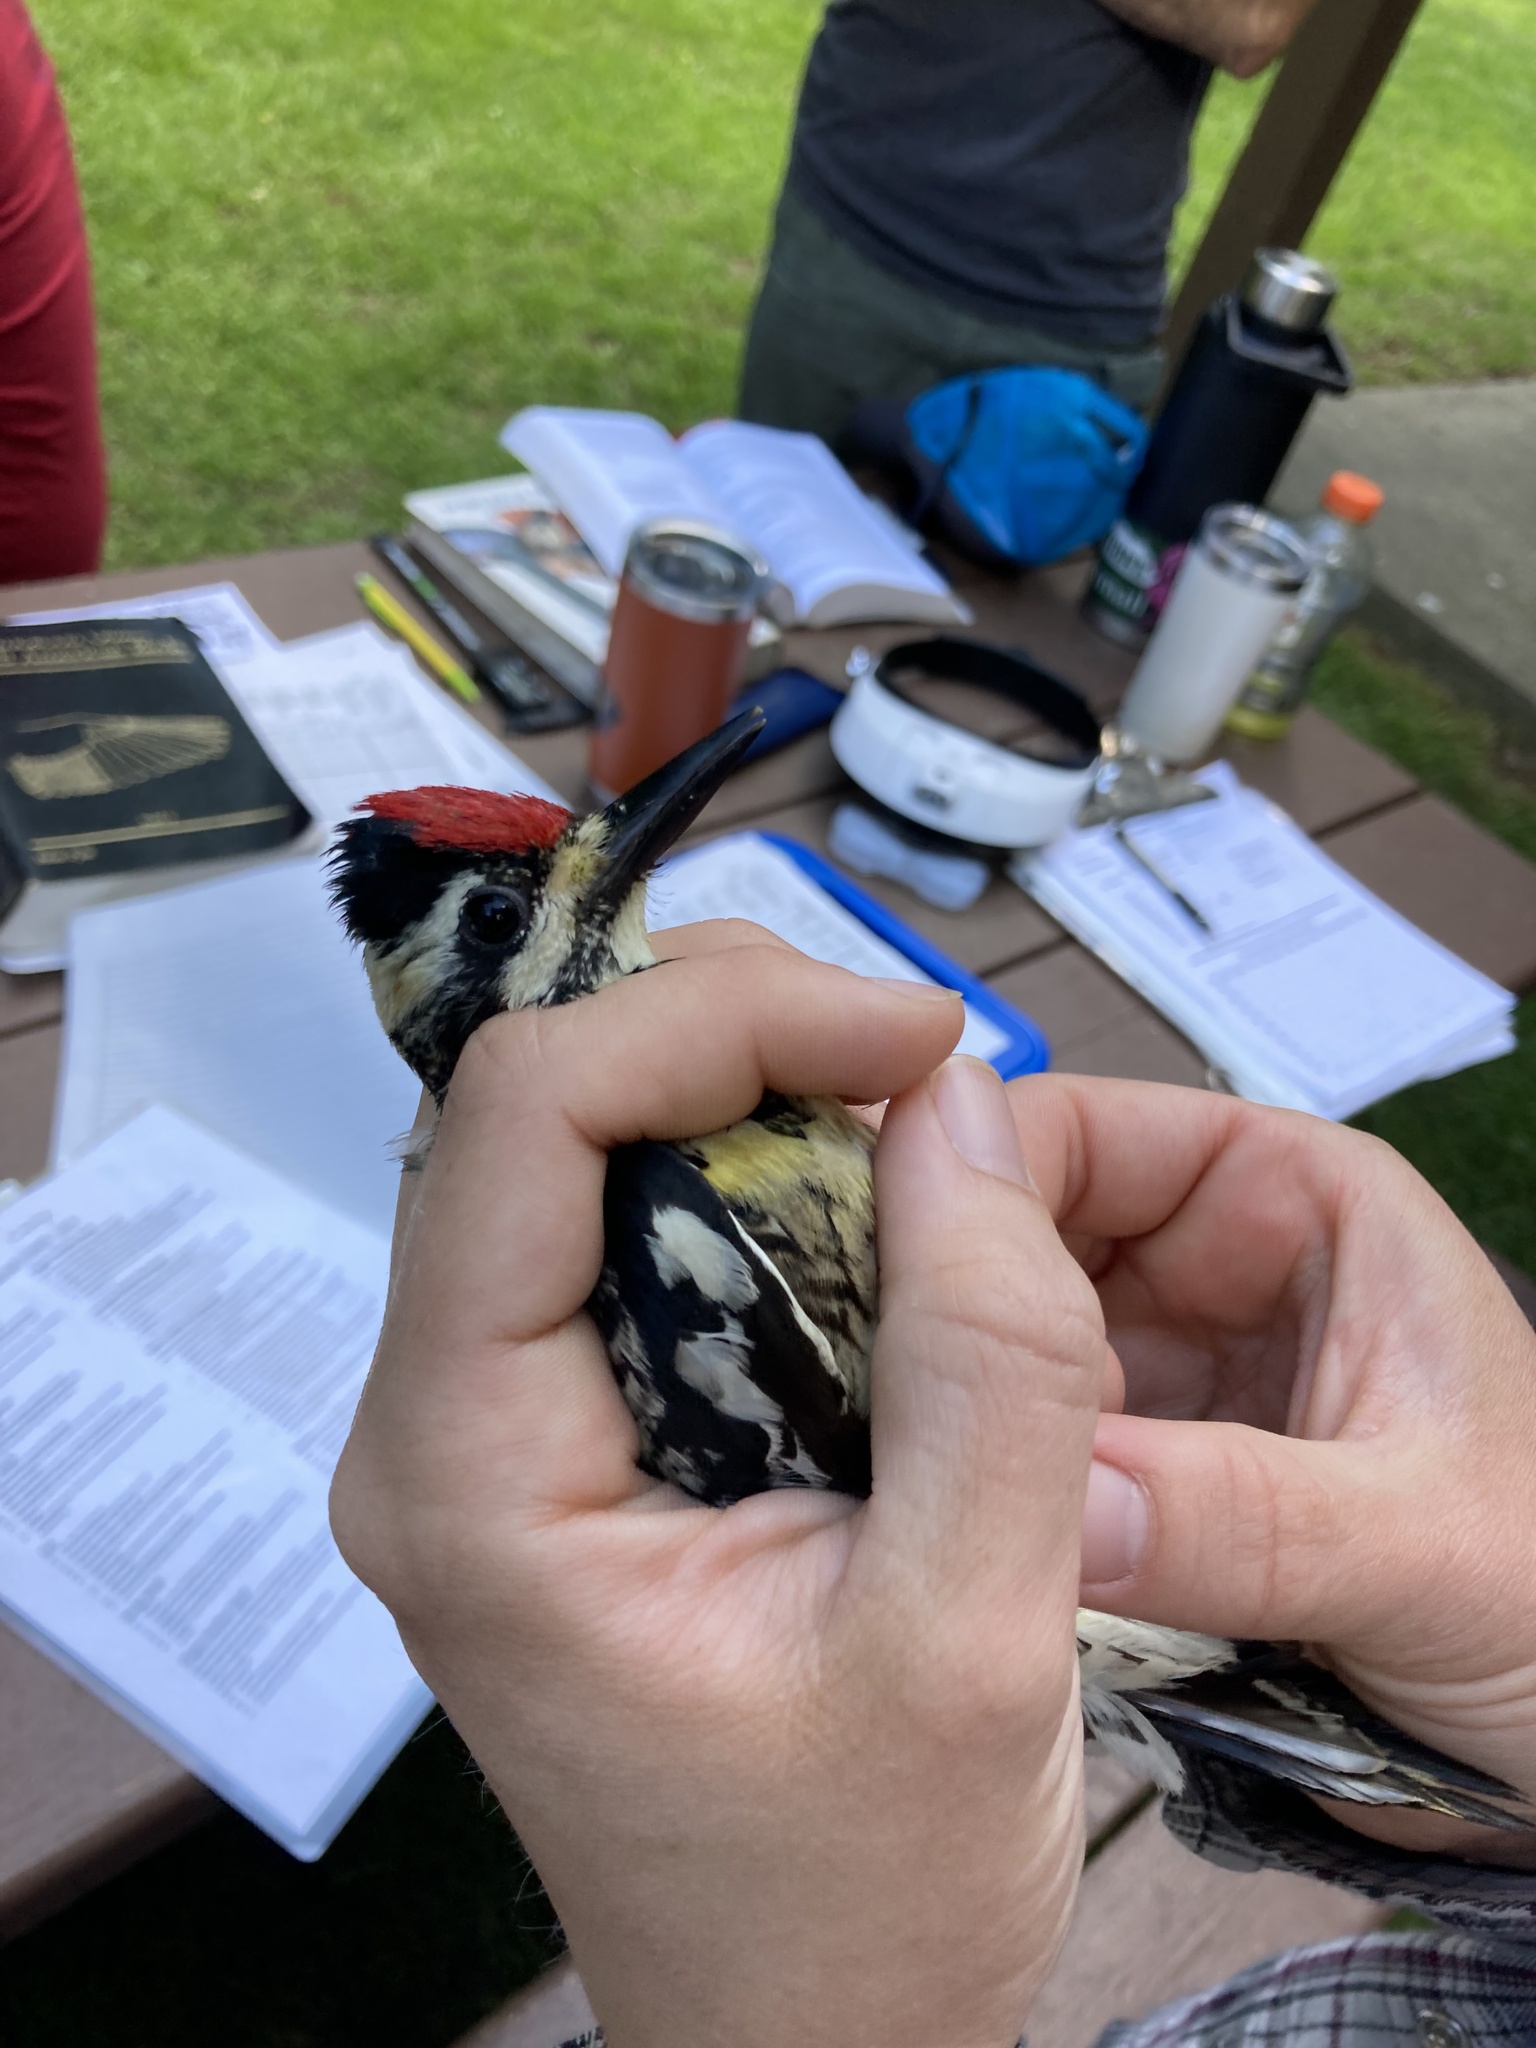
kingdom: Animalia
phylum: Chordata
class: Aves
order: Piciformes
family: Picidae
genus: Sphyrapicus
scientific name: Sphyrapicus varius
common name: Yellow-bellied sapsucker
